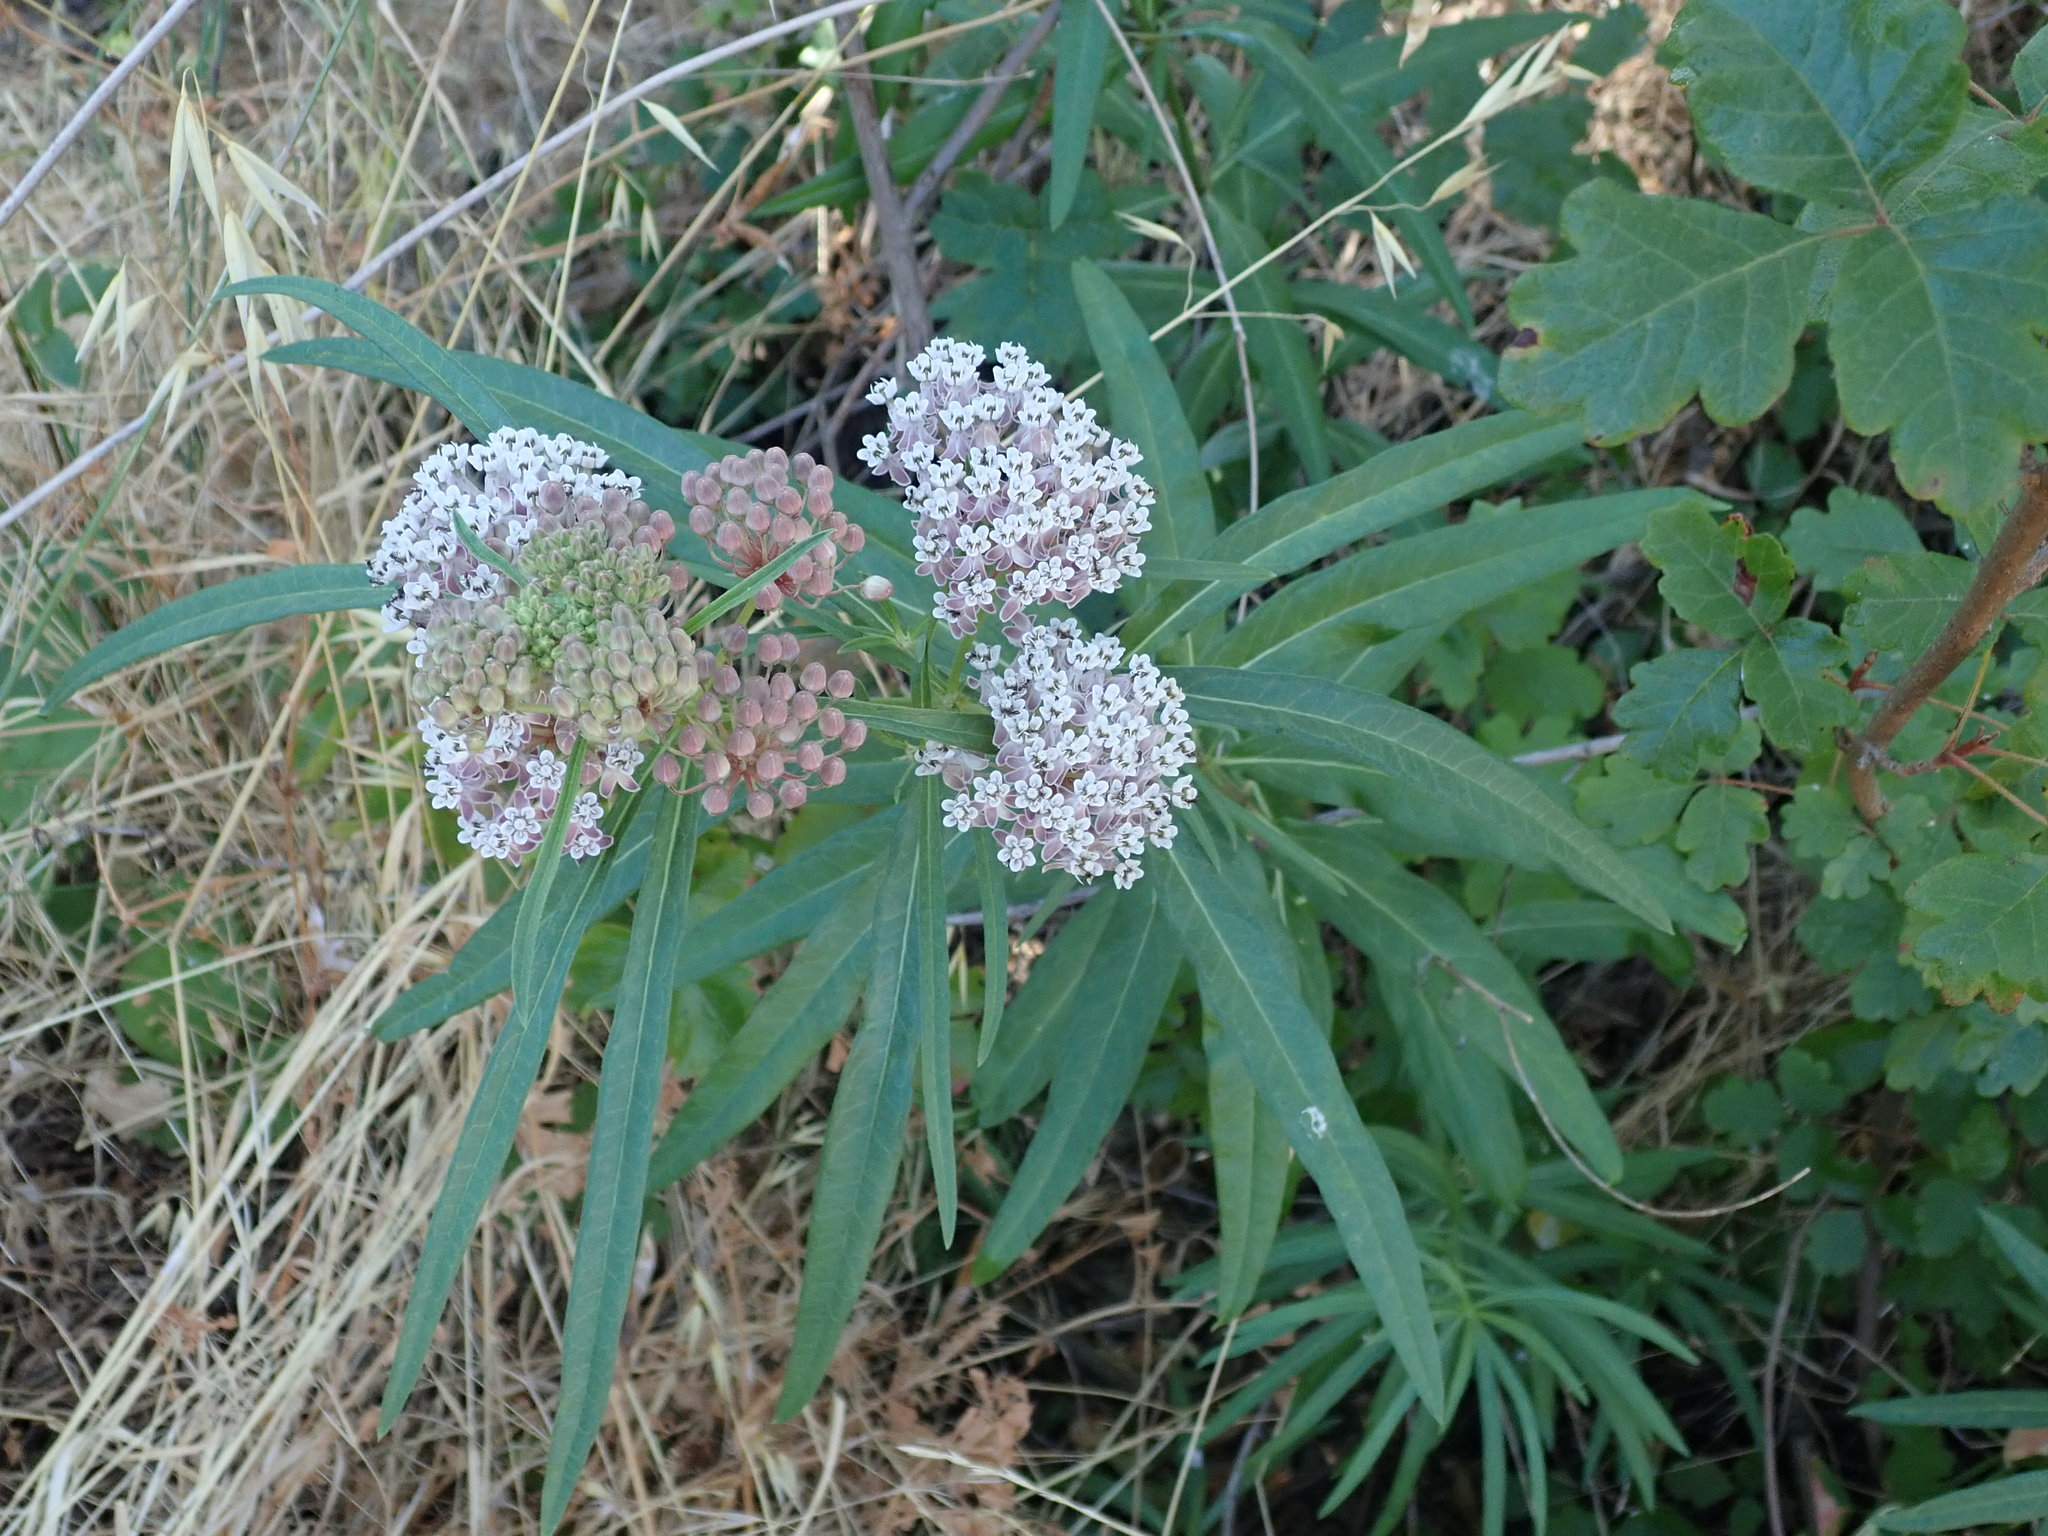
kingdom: Plantae
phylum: Tracheophyta
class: Magnoliopsida
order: Gentianales
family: Apocynaceae
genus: Asclepias
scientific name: Asclepias fascicularis
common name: Mexican milkweed
